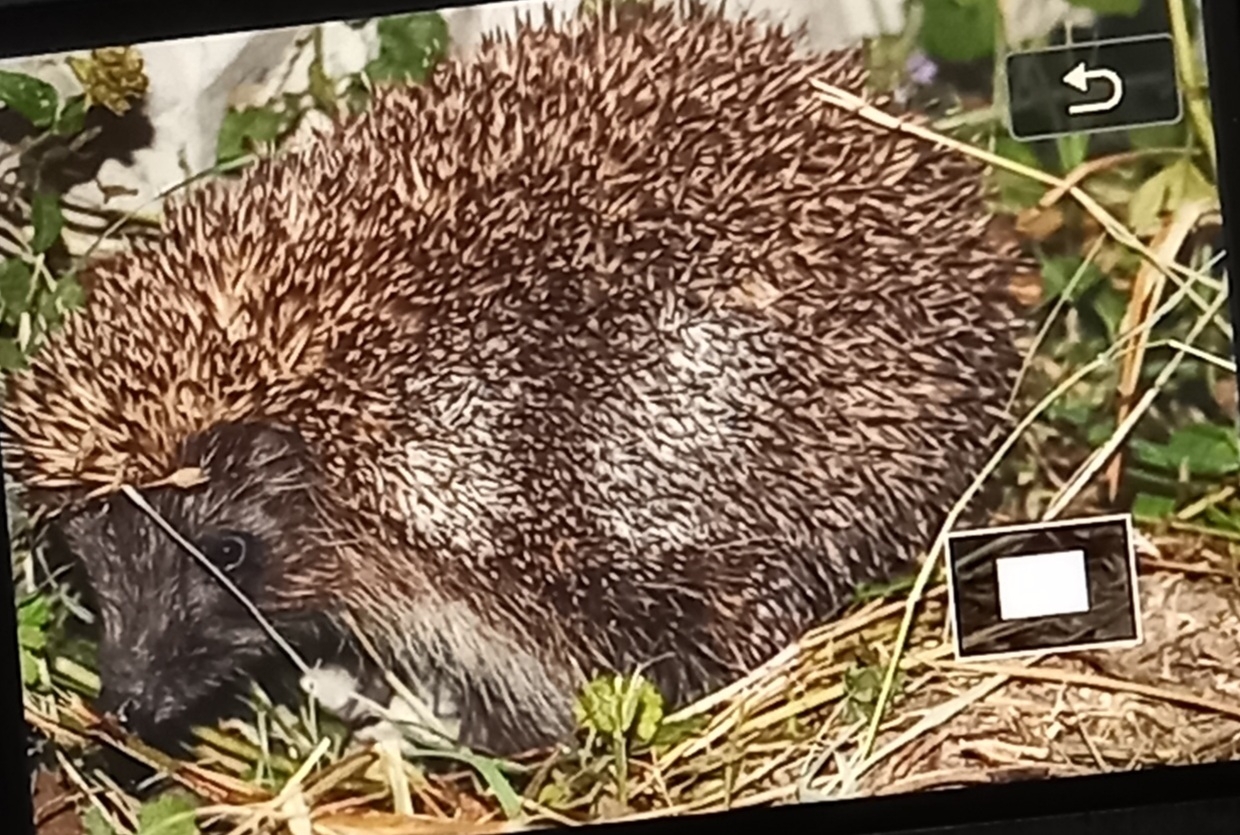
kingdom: Animalia
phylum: Chordata
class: Mammalia
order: Erinaceomorpha
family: Erinaceidae
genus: Erinaceus
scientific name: Erinaceus concolor
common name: Southern white-breasted hedgehog
